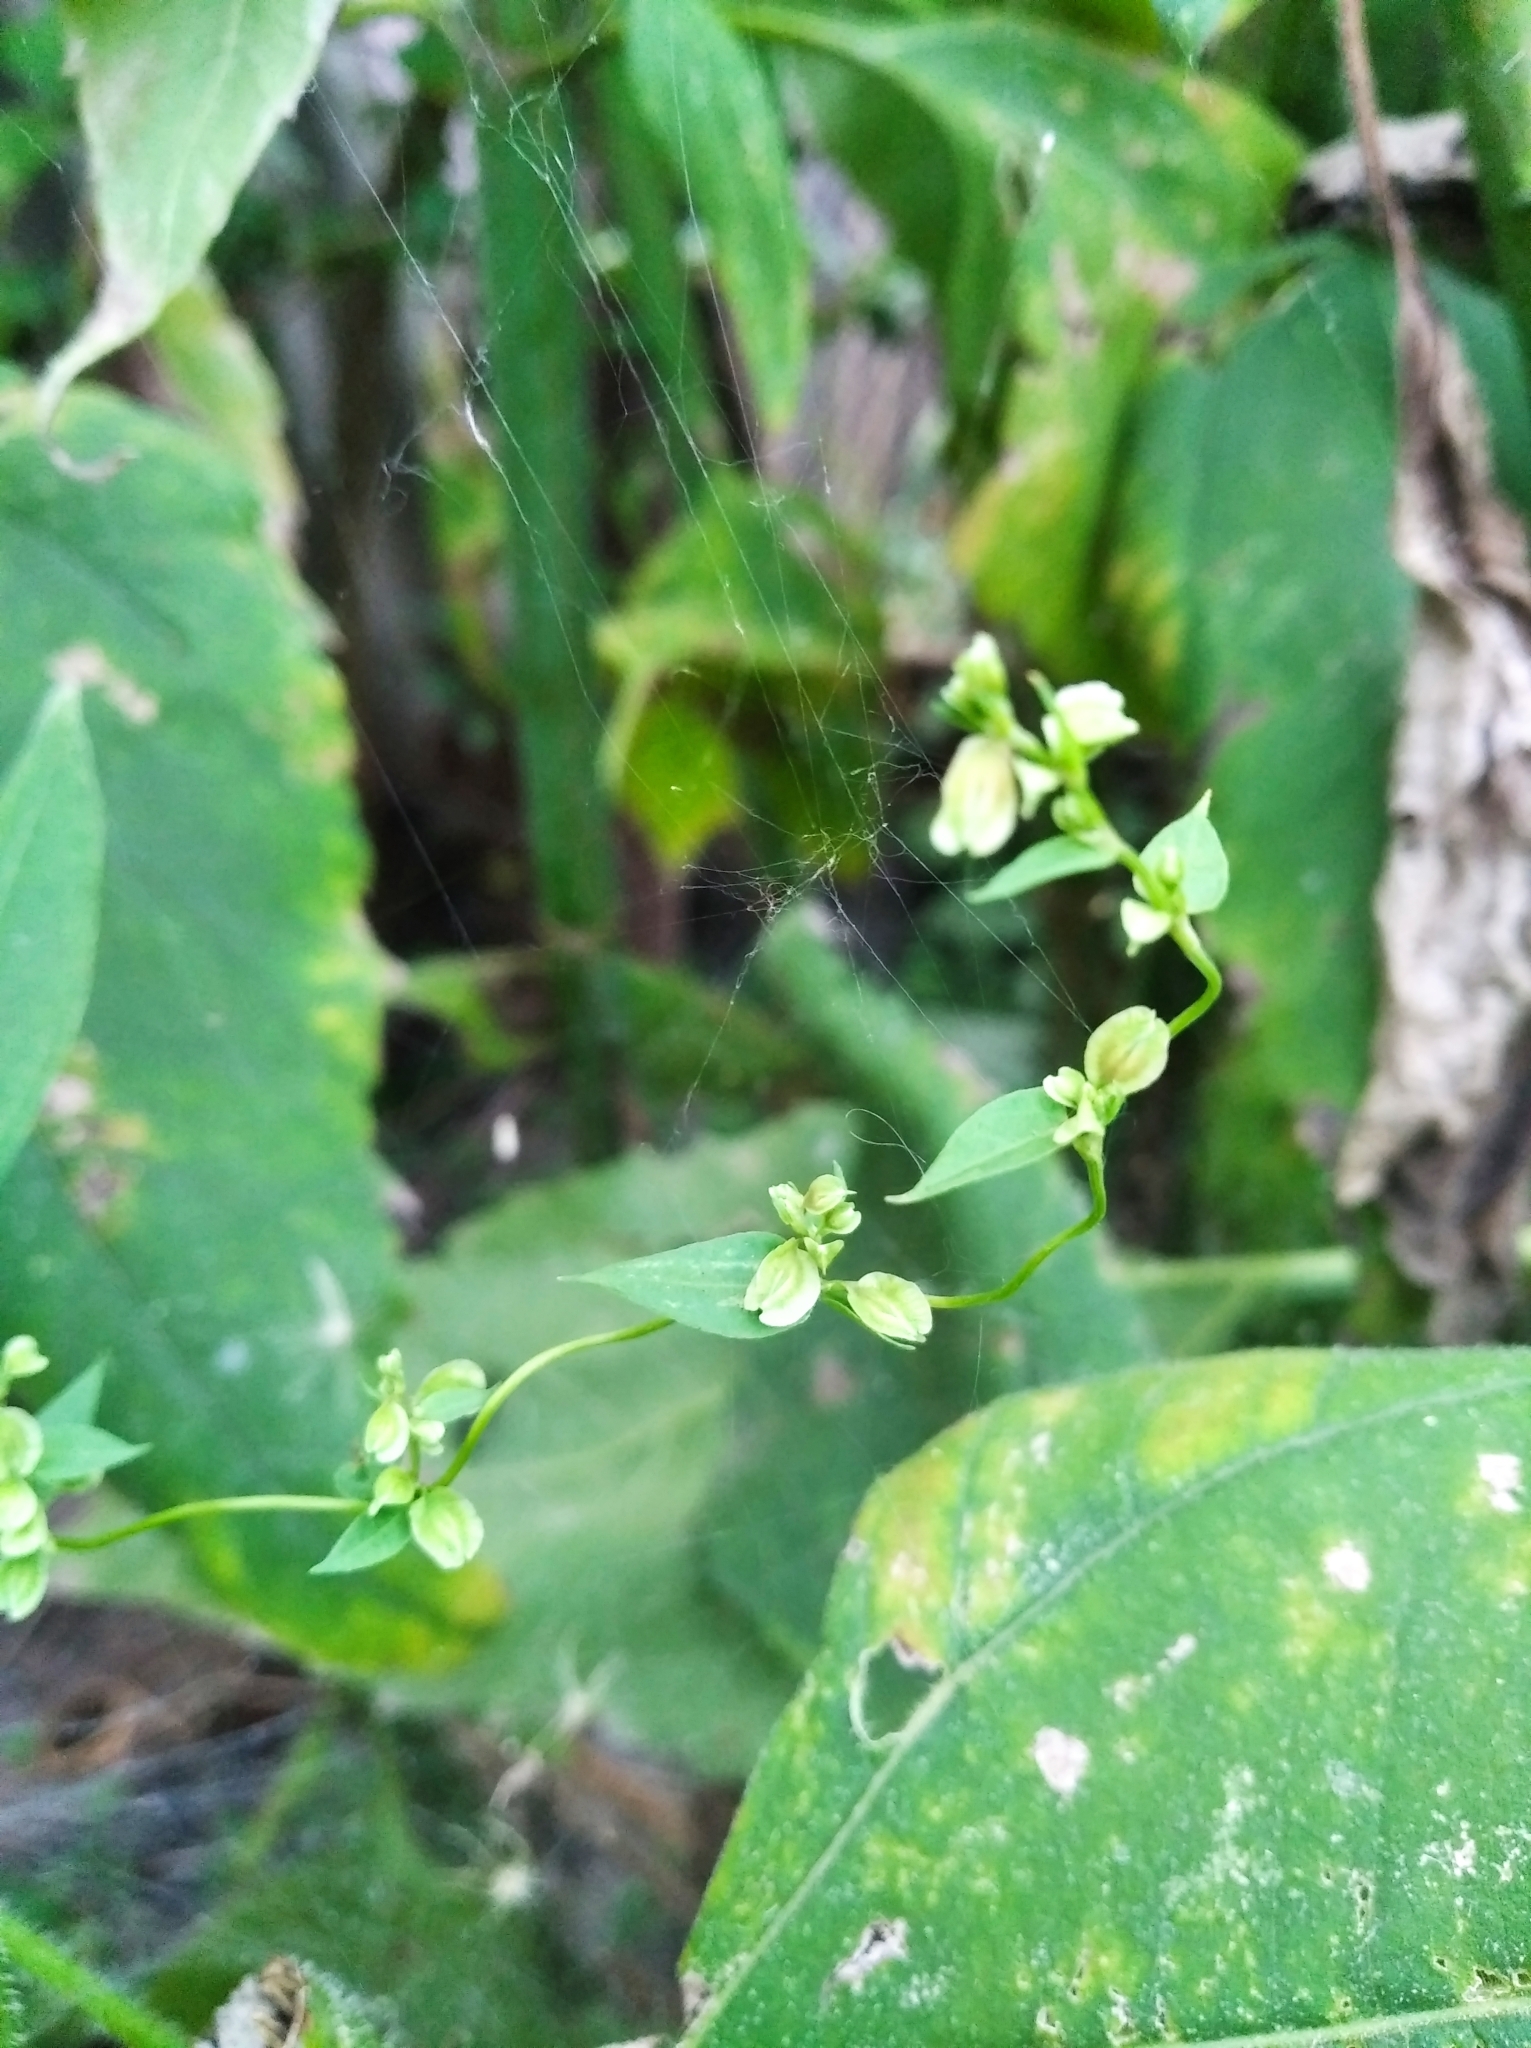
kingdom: Plantae
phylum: Tracheophyta
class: Magnoliopsida
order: Caryophyllales
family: Polygonaceae
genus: Fallopia
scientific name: Fallopia dumetorum
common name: Copse-bindweed
